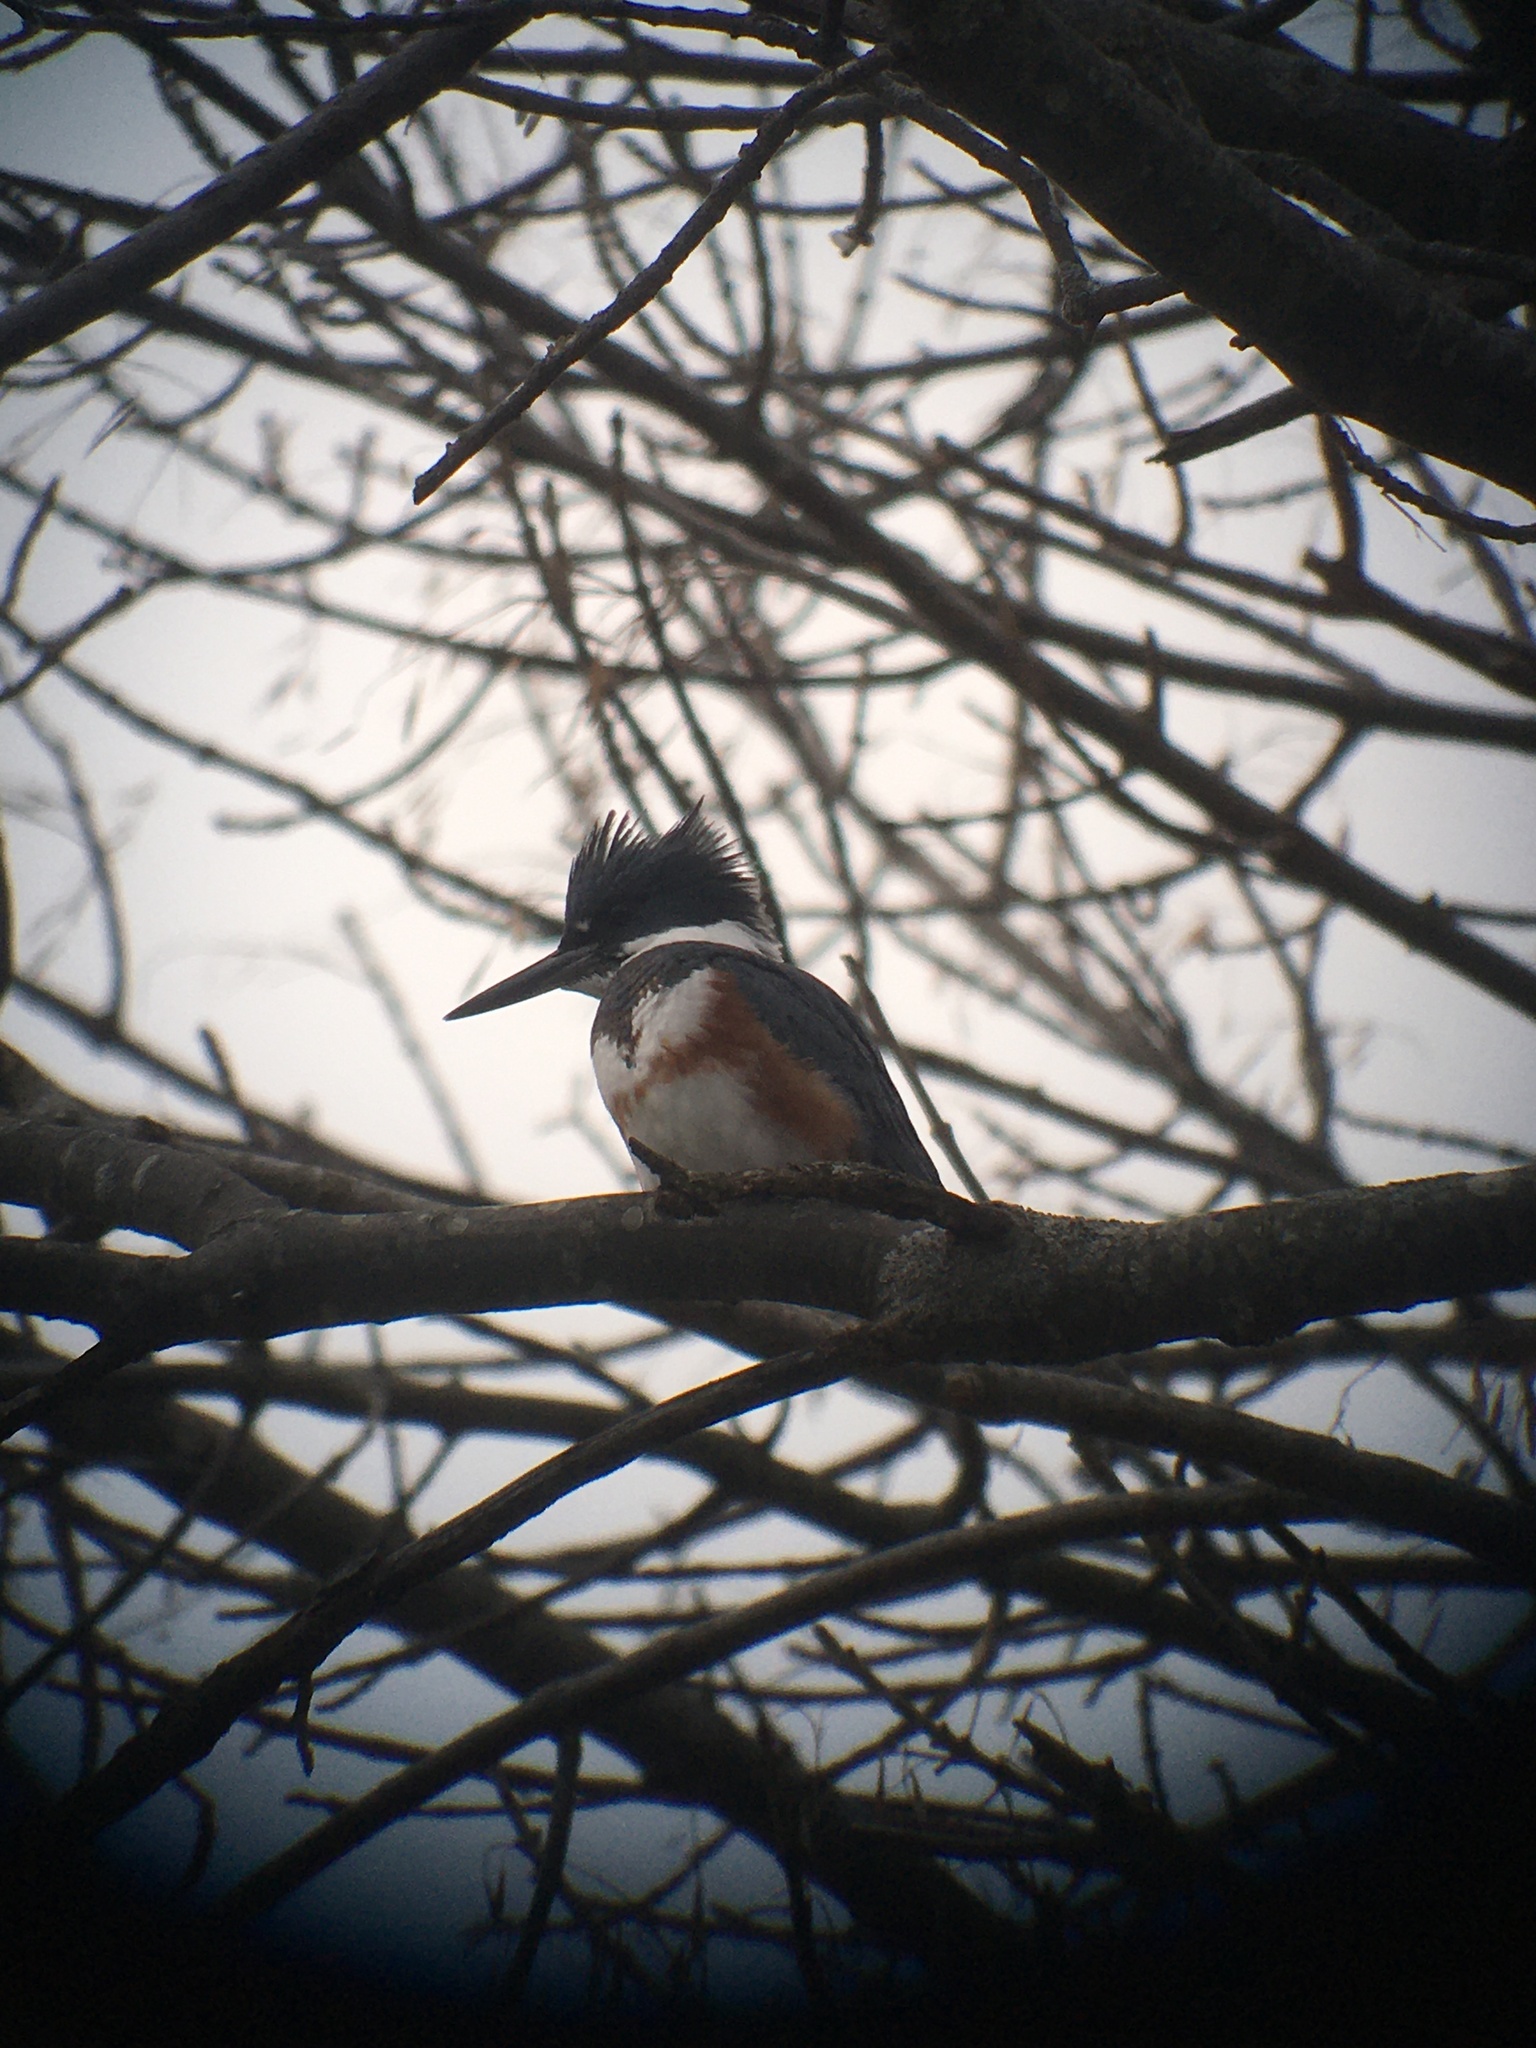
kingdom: Animalia
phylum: Chordata
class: Aves
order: Coraciiformes
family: Alcedinidae
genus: Megaceryle
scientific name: Megaceryle alcyon
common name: Belted kingfisher
